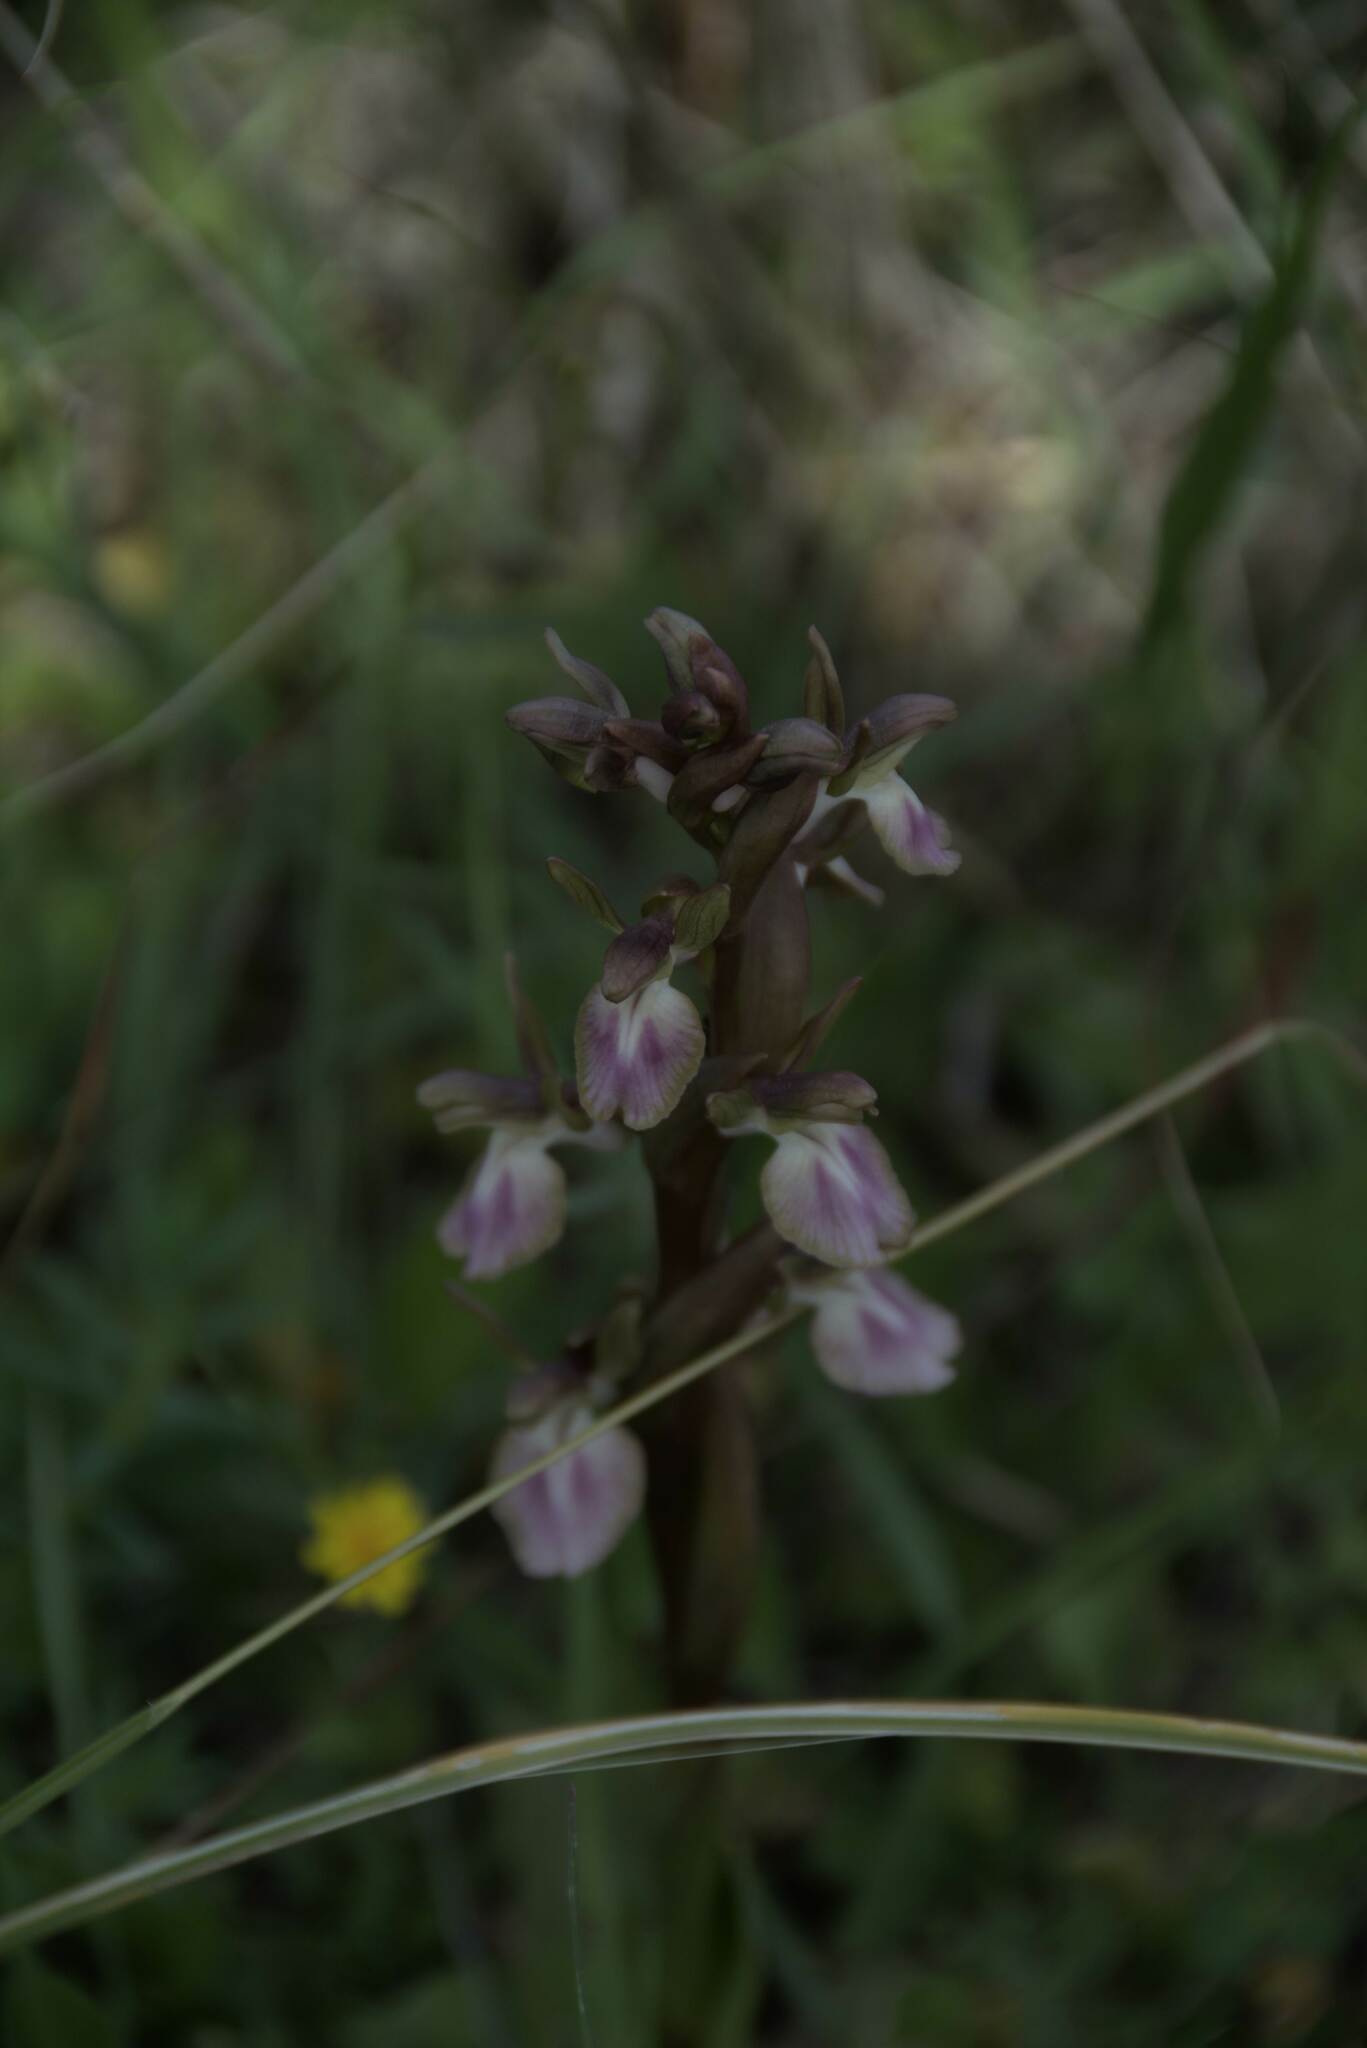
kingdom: Plantae
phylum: Tracheophyta
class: Liliopsida
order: Asparagales
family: Orchidaceae
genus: Anacamptis
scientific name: Anacamptis collina
